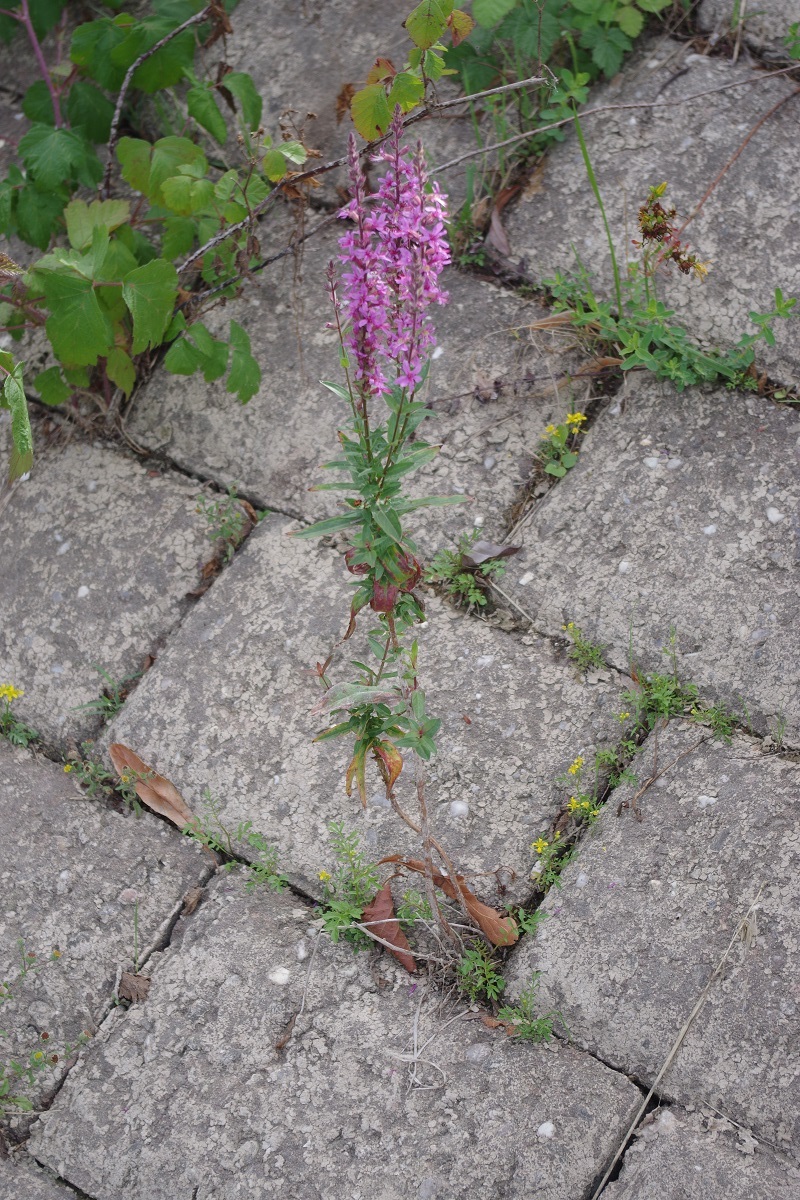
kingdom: Plantae
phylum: Tracheophyta
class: Magnoliopsida
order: Myrtales
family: Lythraceae
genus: Lythrum
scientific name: Lythrum salicaria
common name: Purple loosestrife
